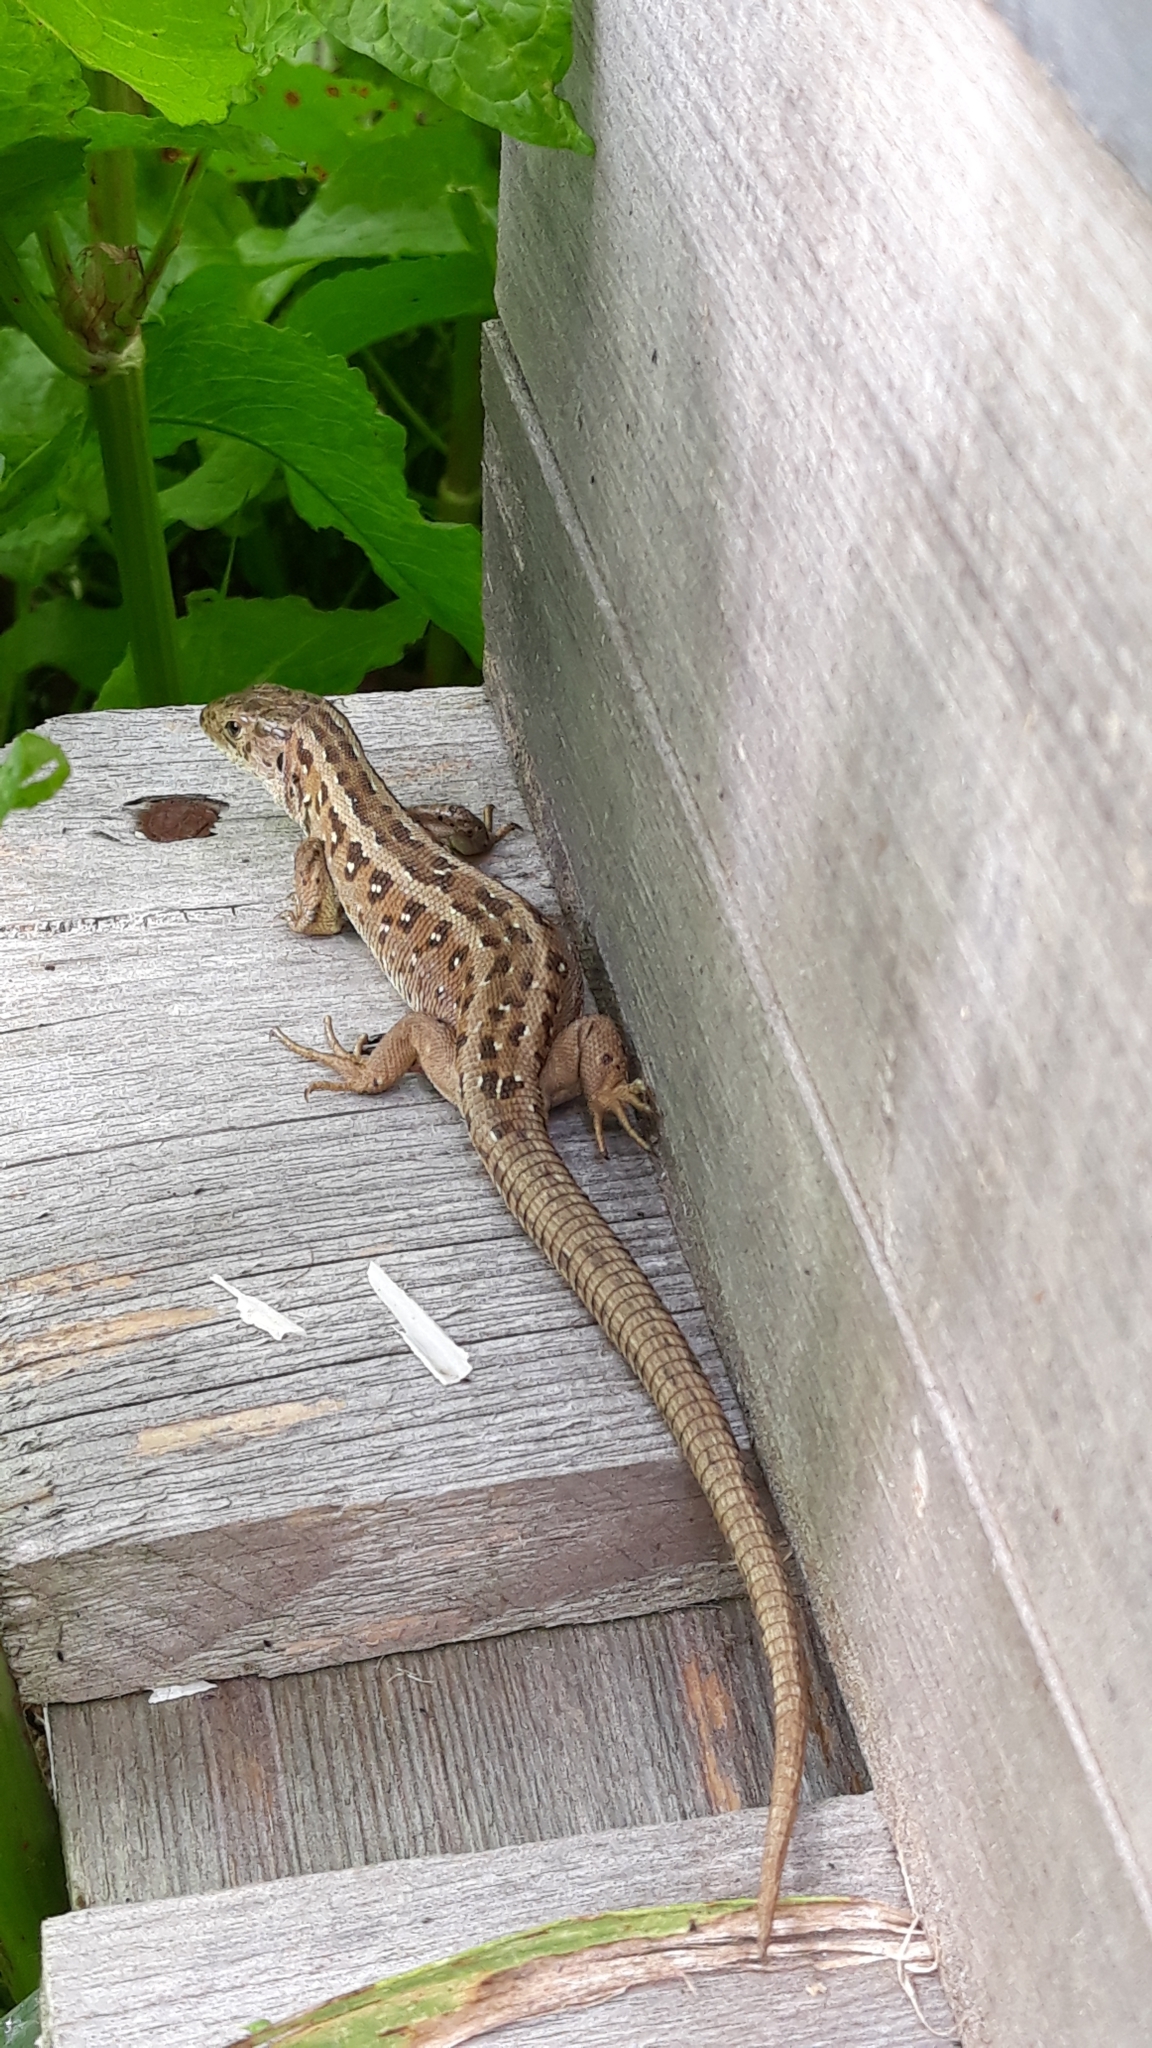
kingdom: Animalia
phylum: Chordata
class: Squamata
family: Lacertidae
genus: Lacerta
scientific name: Lacerta agilis
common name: Sand lizard
